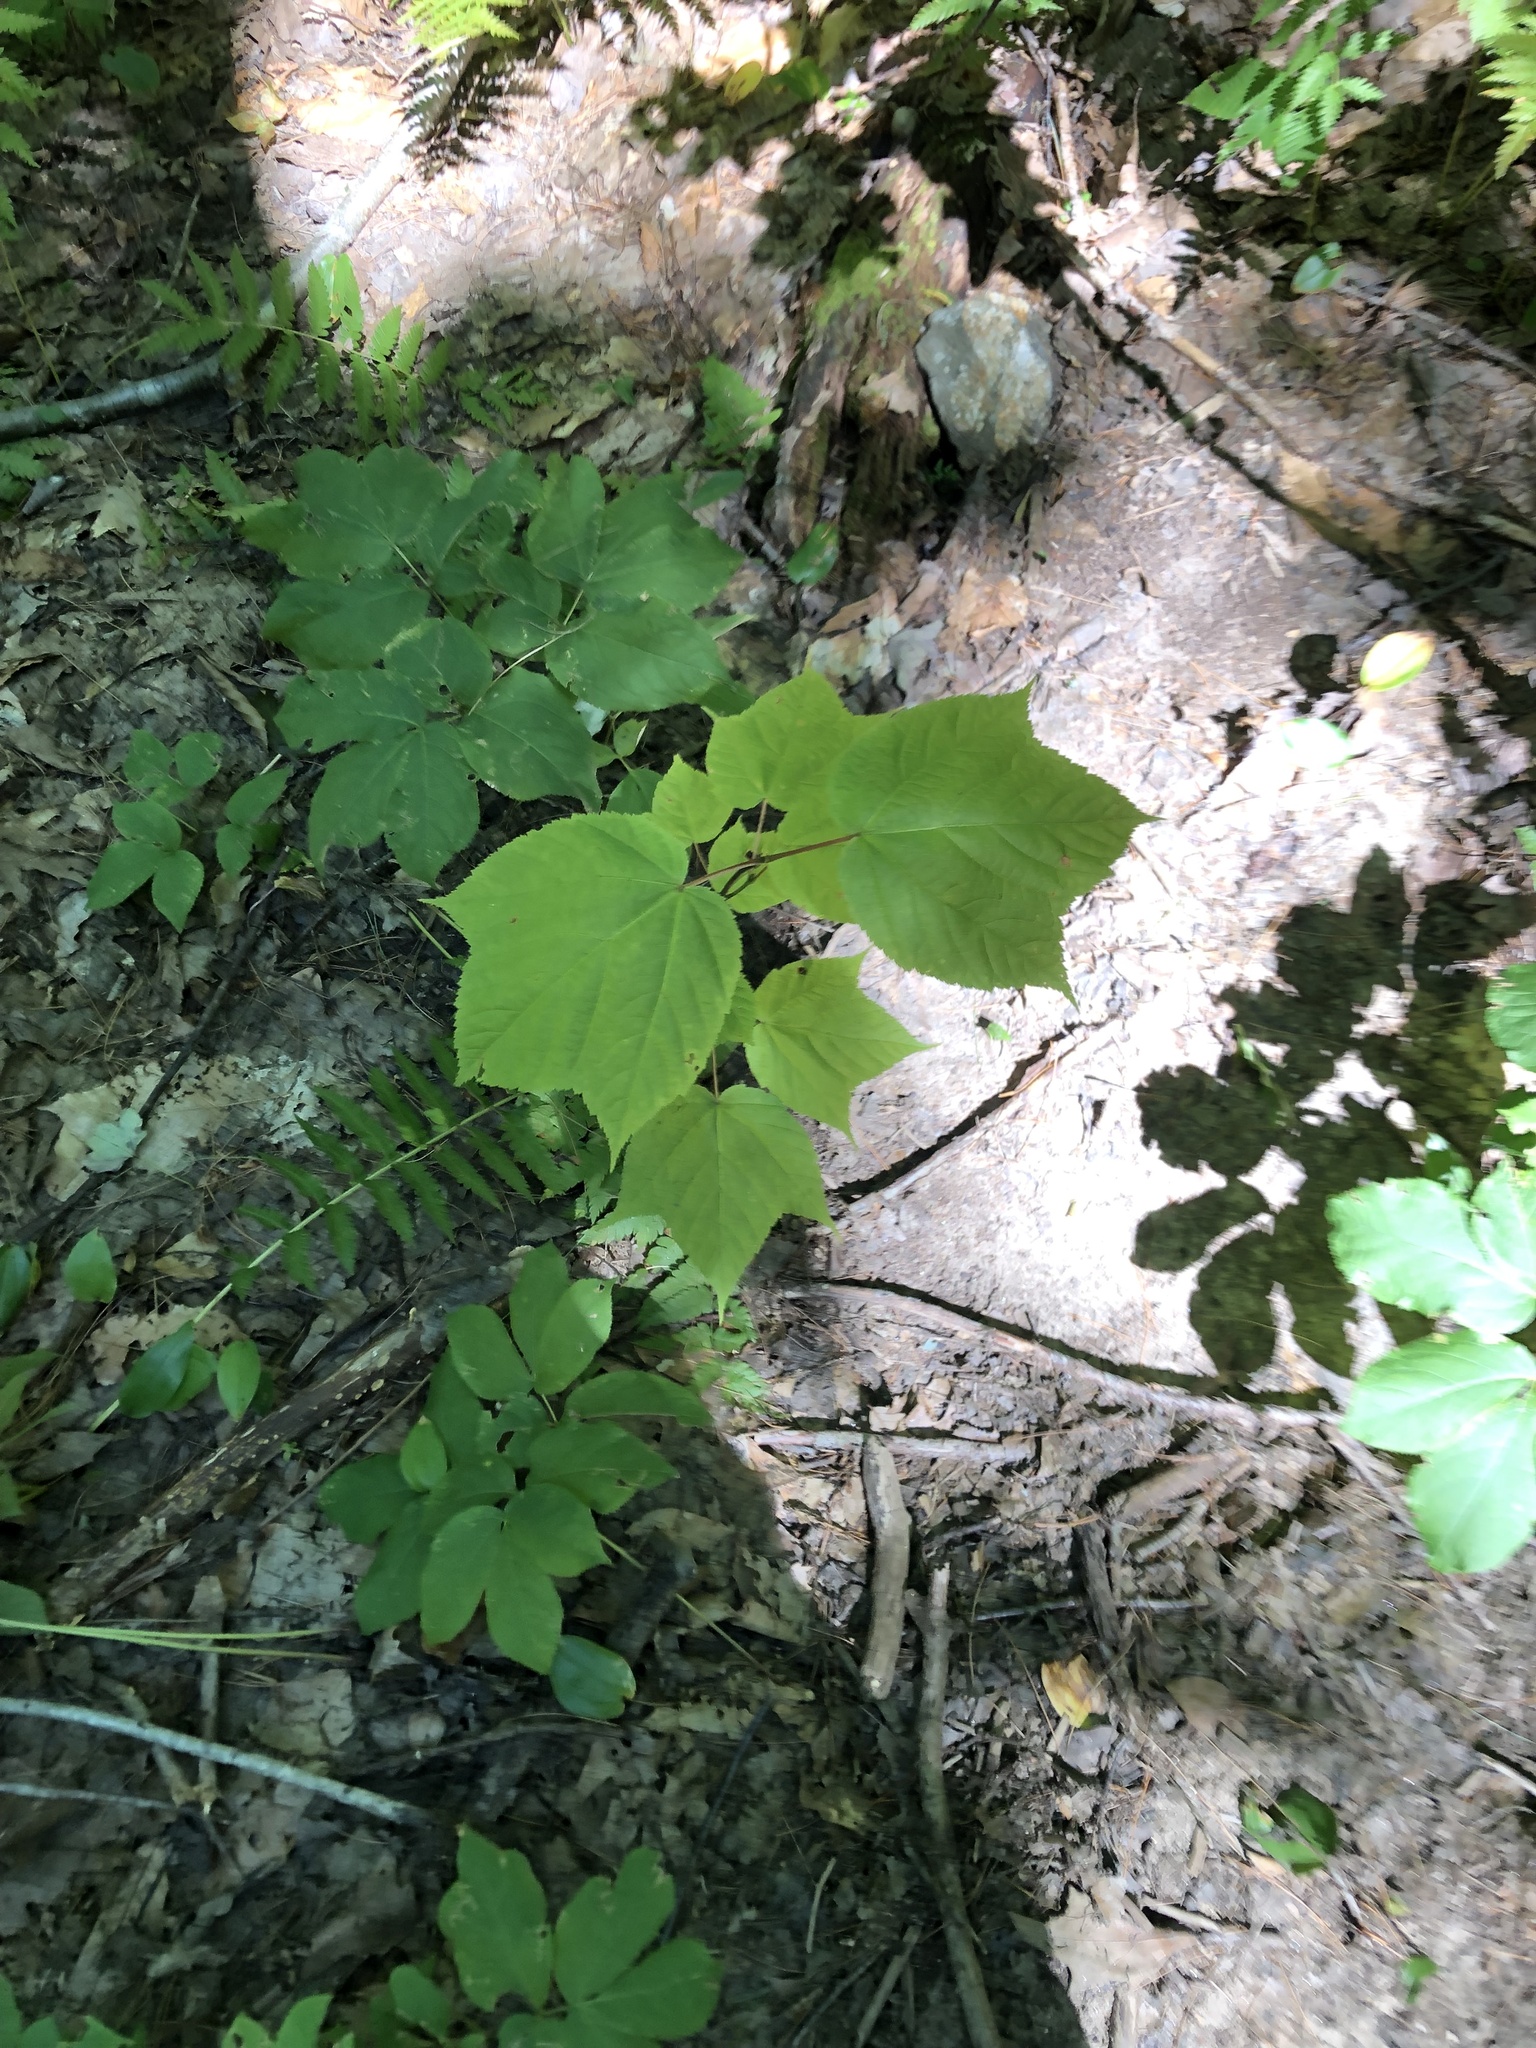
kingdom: Plantae
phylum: Tracheophyta
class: Magnoliopsida
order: Sapindales
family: Sapindaceae
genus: Acer
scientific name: Acer pensylvanicum
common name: Moosewood
